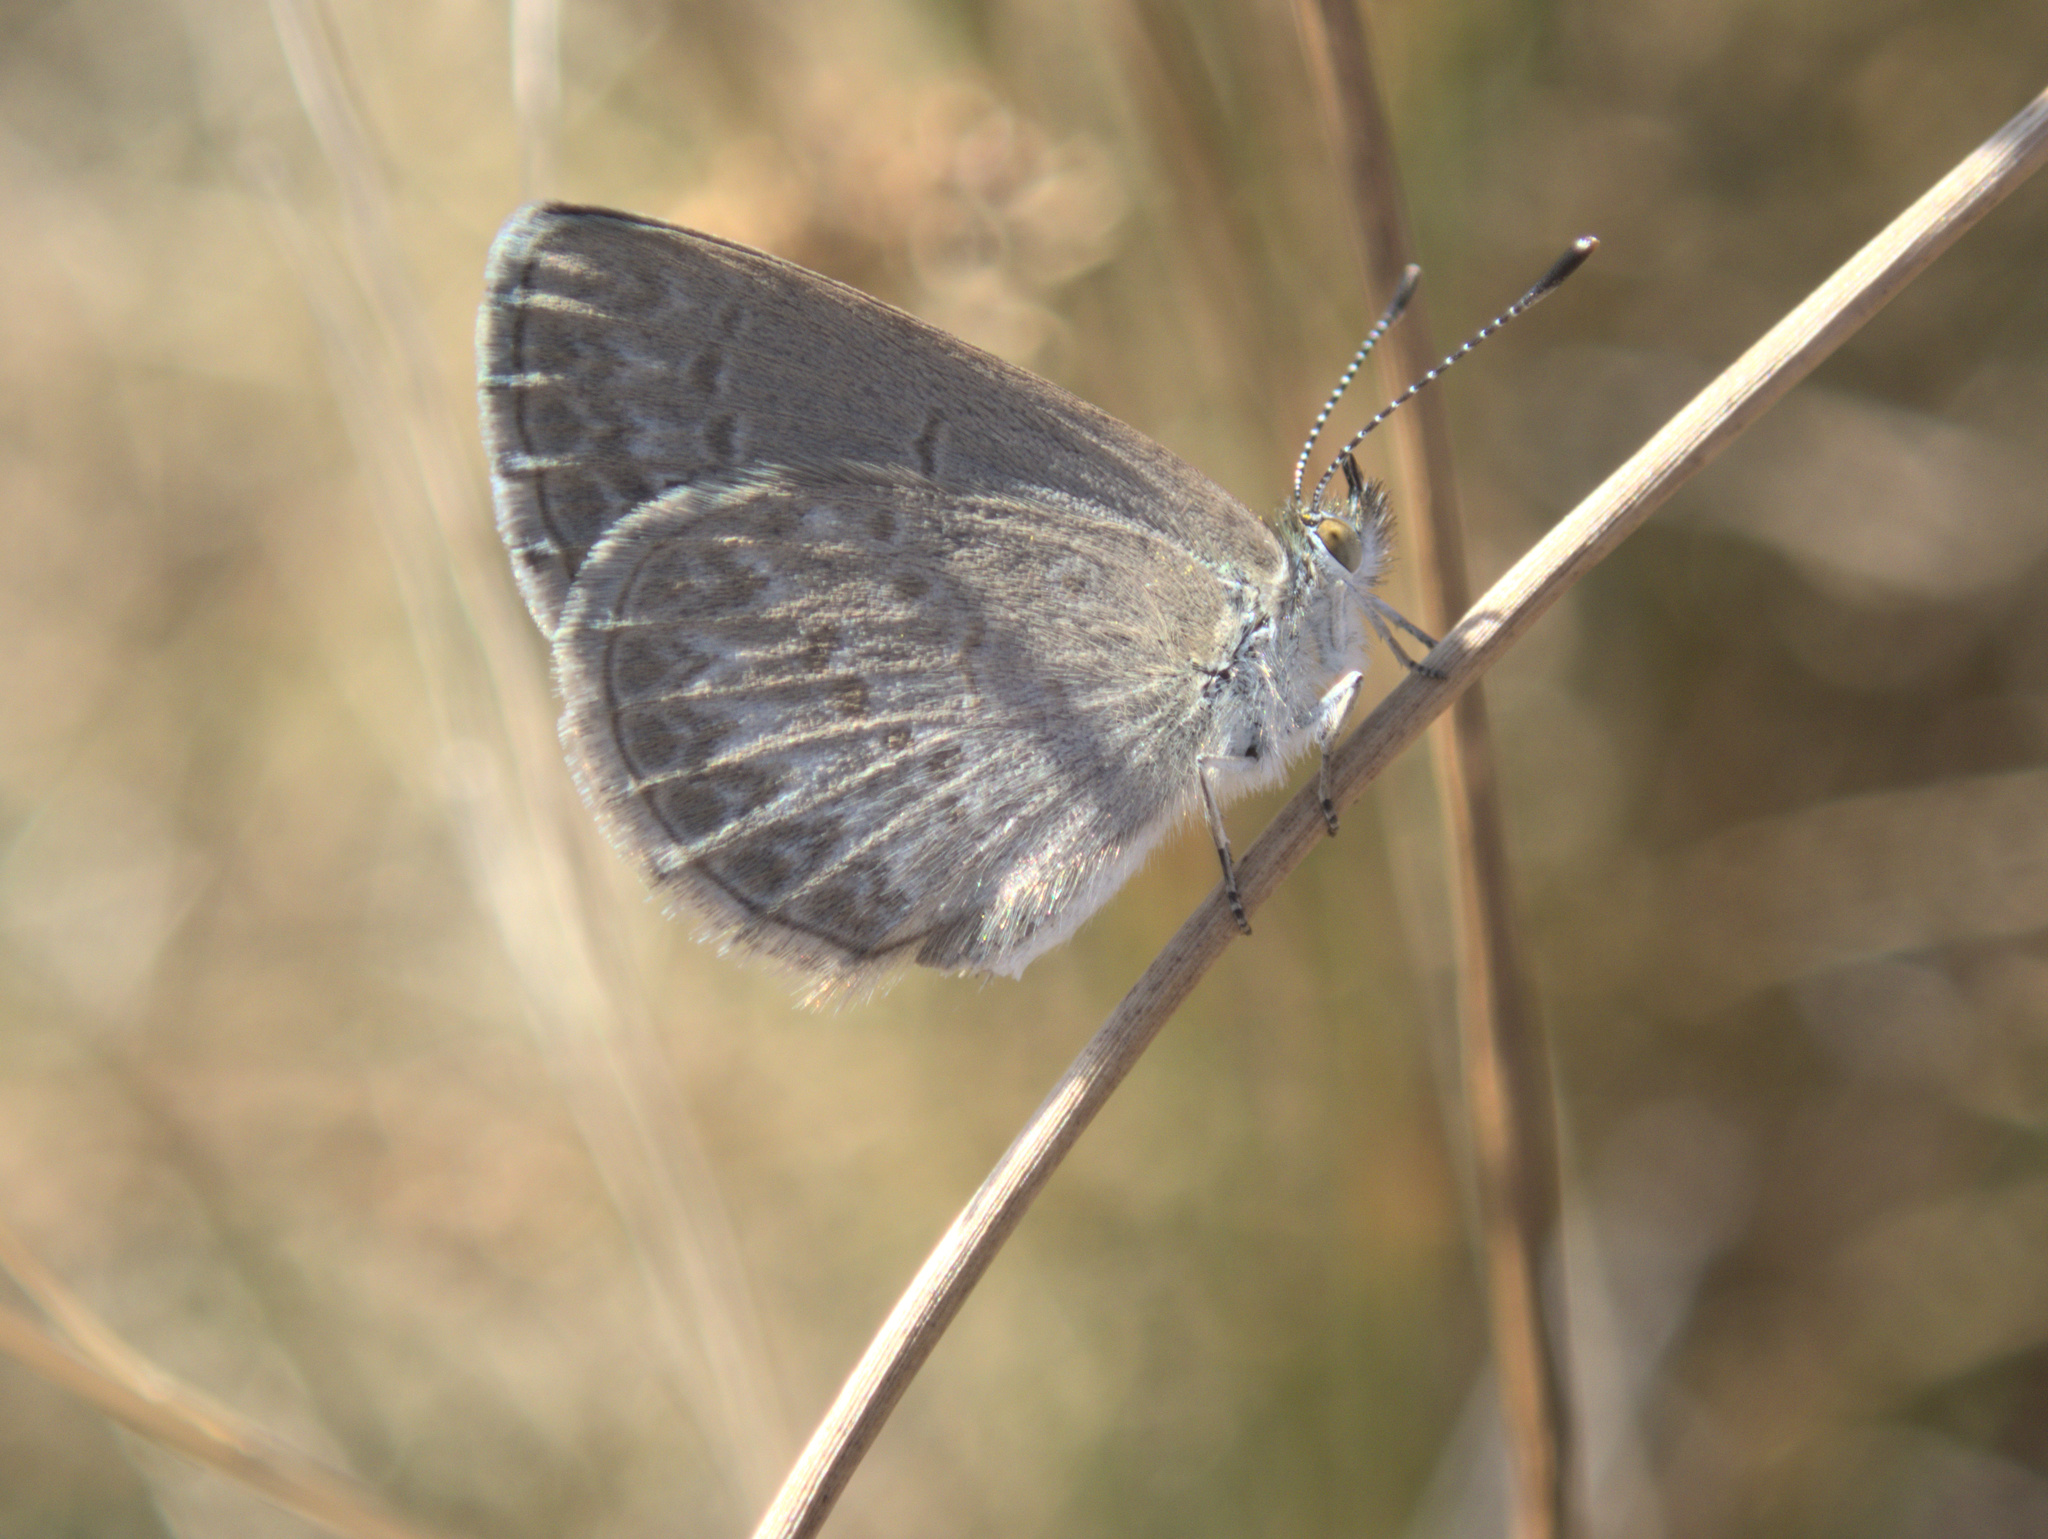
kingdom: Animalia
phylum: Arthropoda
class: Insecta
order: Lepidoptera
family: Lycaenidae
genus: Zizina
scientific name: Zizina labradus
